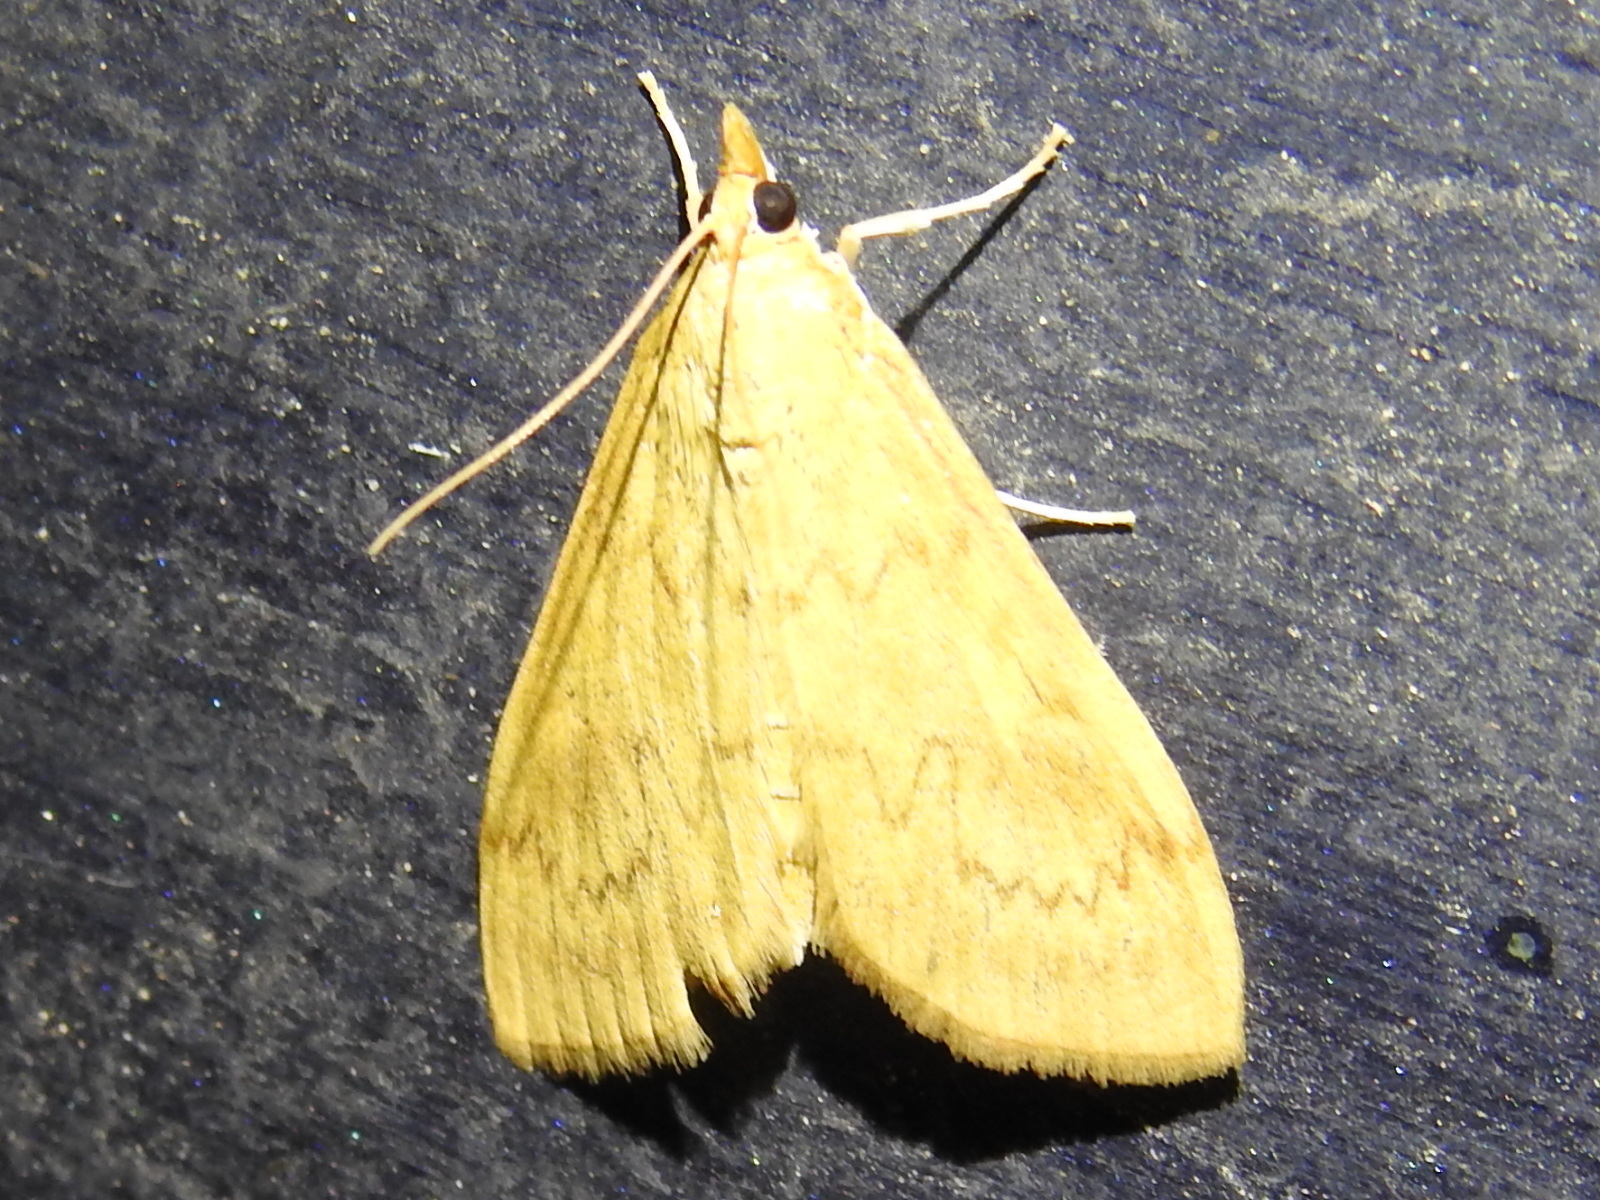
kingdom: Animalia
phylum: Arthropoda
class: Insecta
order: Lepidoptera
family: Crambidae
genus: Ostrinia
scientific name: Ostrinia penitalis
